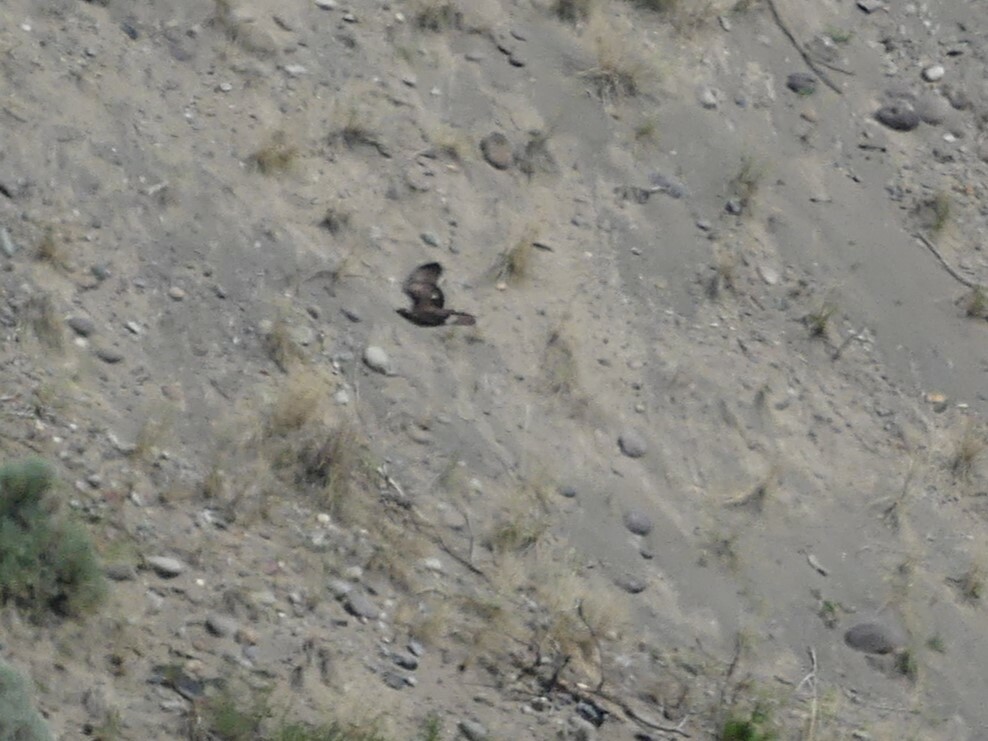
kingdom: Animalia
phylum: Chordata
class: Aves
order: Accipitriformes
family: Accipitridae
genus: Buteo
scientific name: Buteo jamaicensis
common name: Red-tailed hawk
